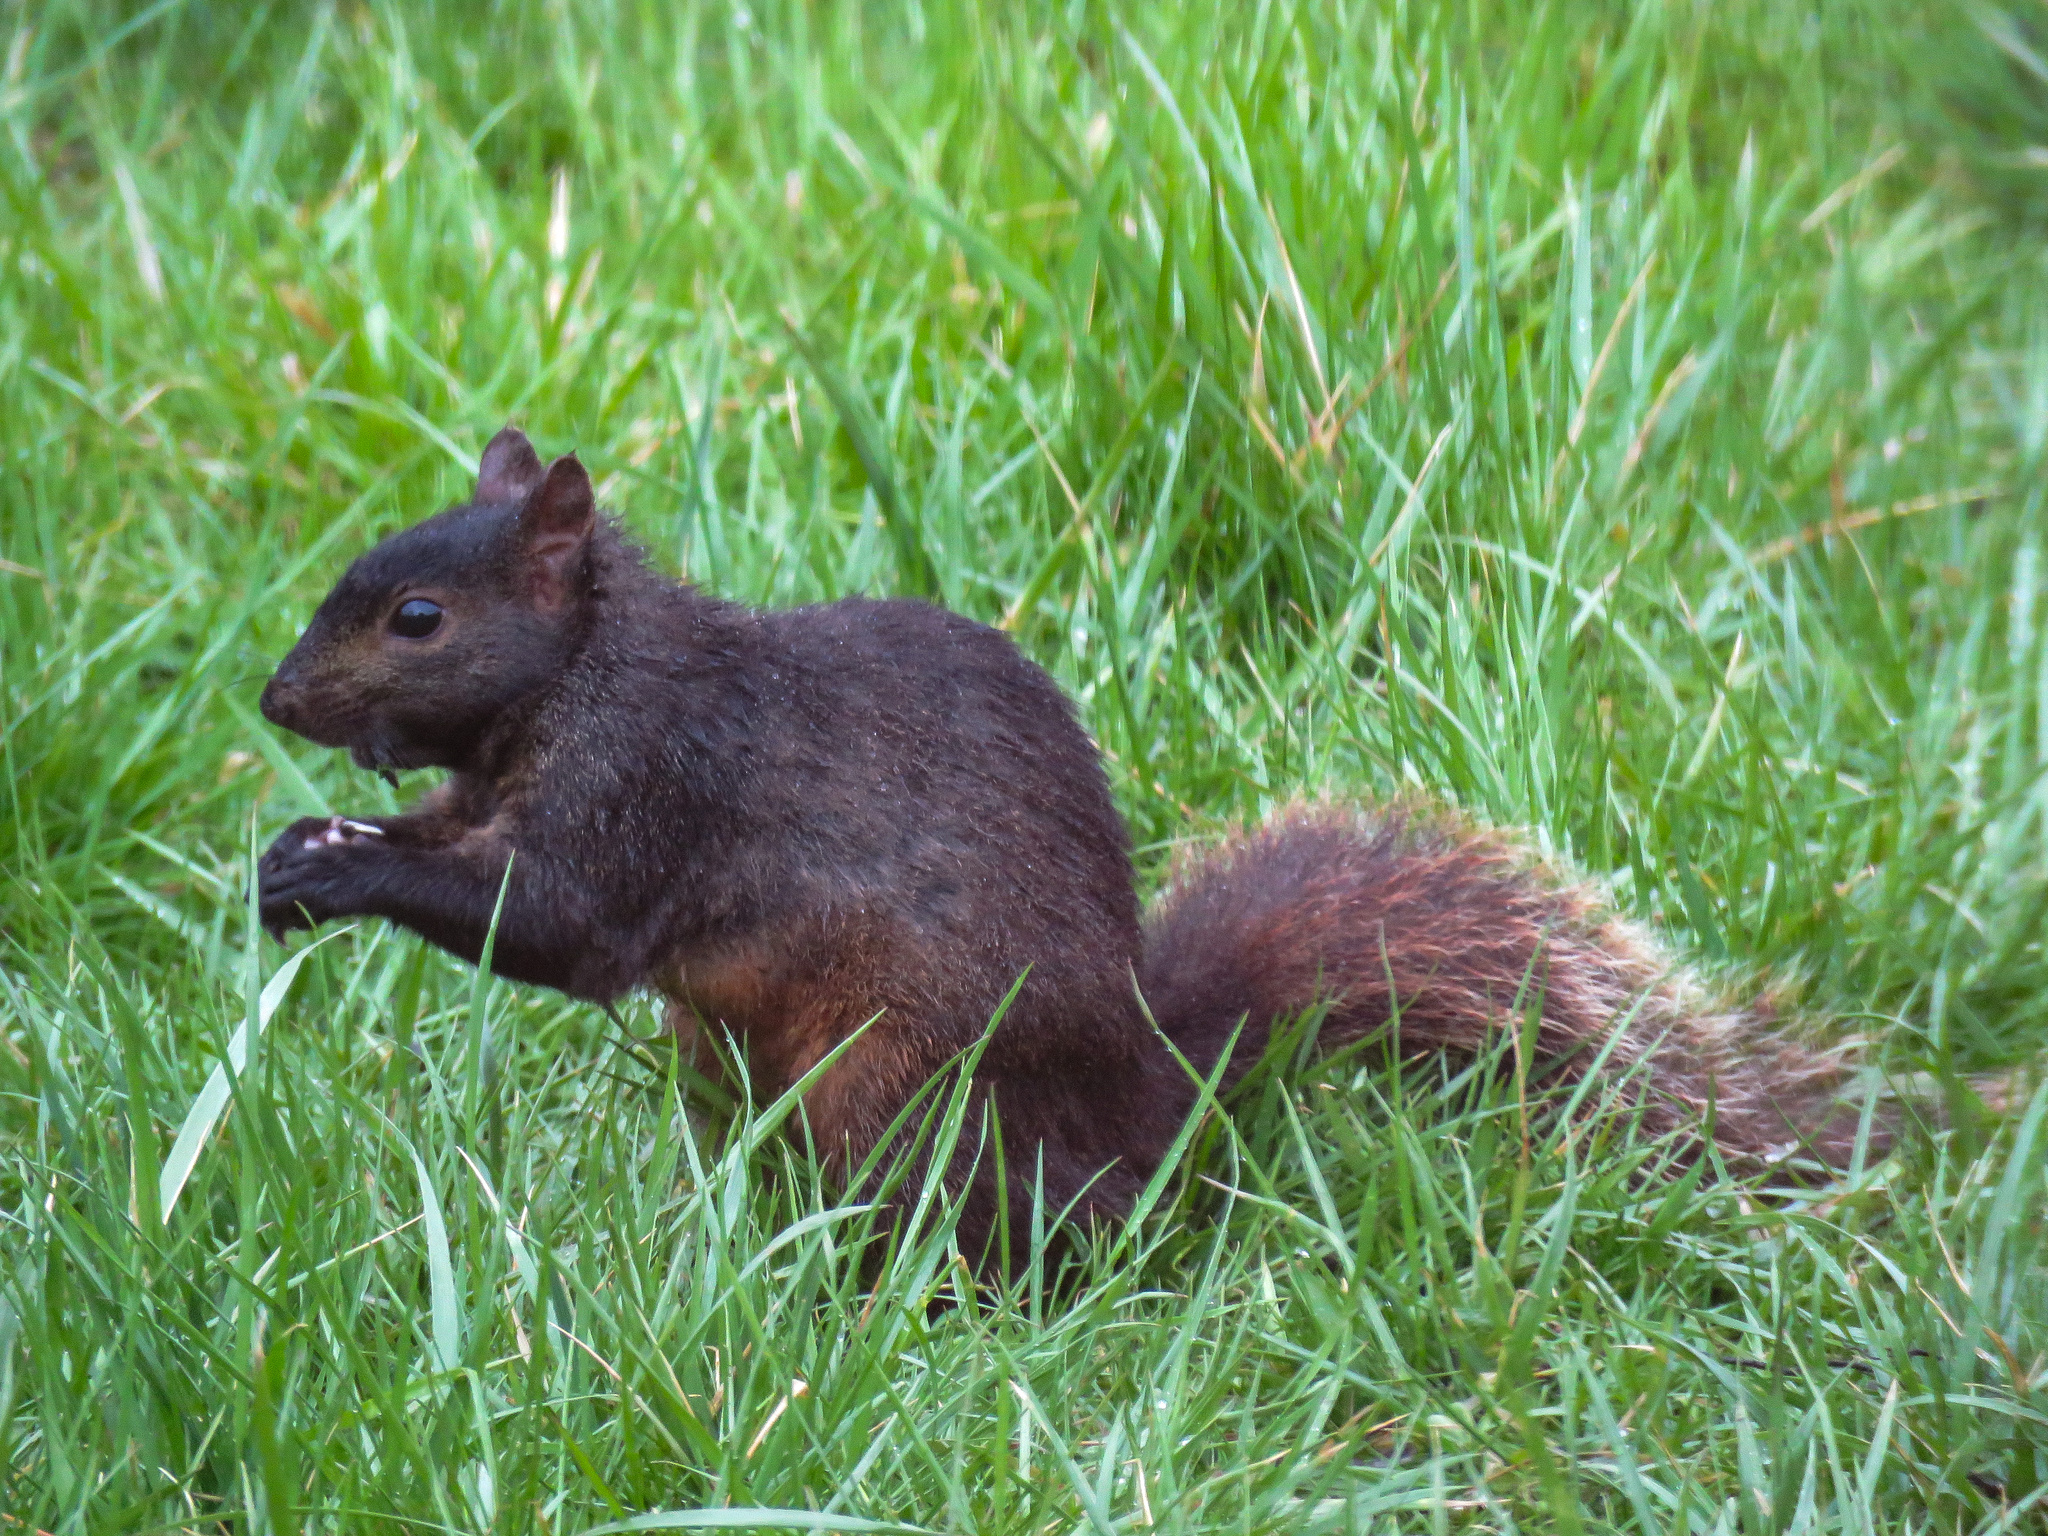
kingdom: Animalia
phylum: Chordata
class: Mammalia
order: Rodentia
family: Sciuridae
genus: Sciurus
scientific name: Sciurus carolinensis
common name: Eastern gray squirrel
